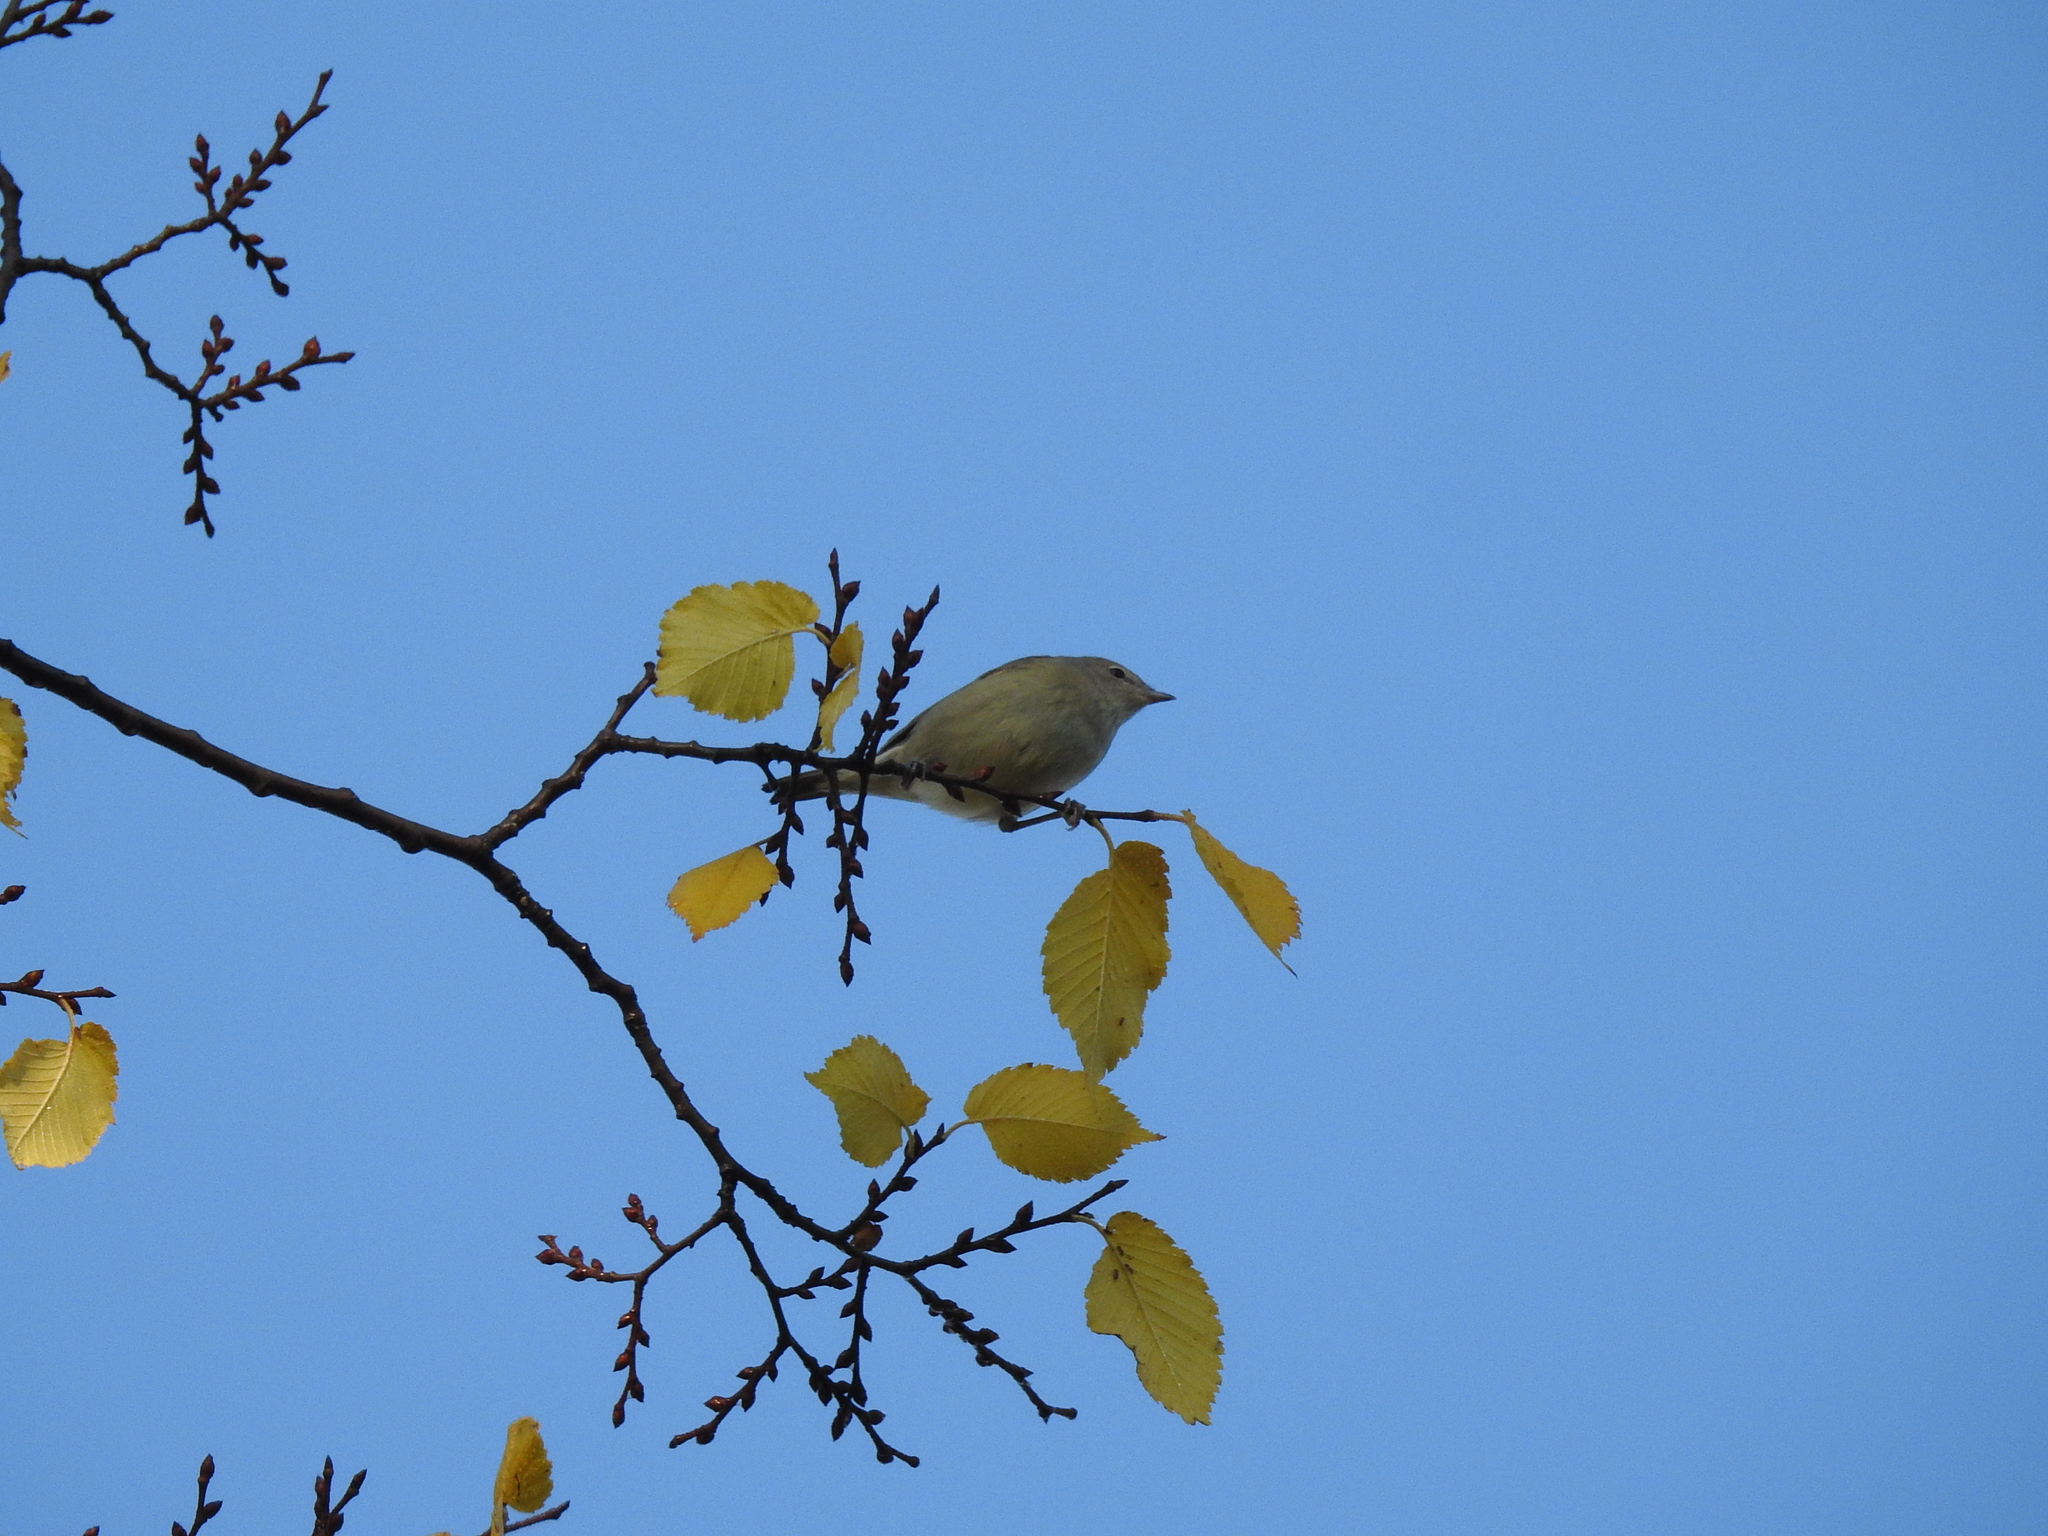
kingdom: Animalia
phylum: Chordata
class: Aves
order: Passeriformes
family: Sylviidae
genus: Sylvia
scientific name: Sylvia borin
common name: Garden warbler
